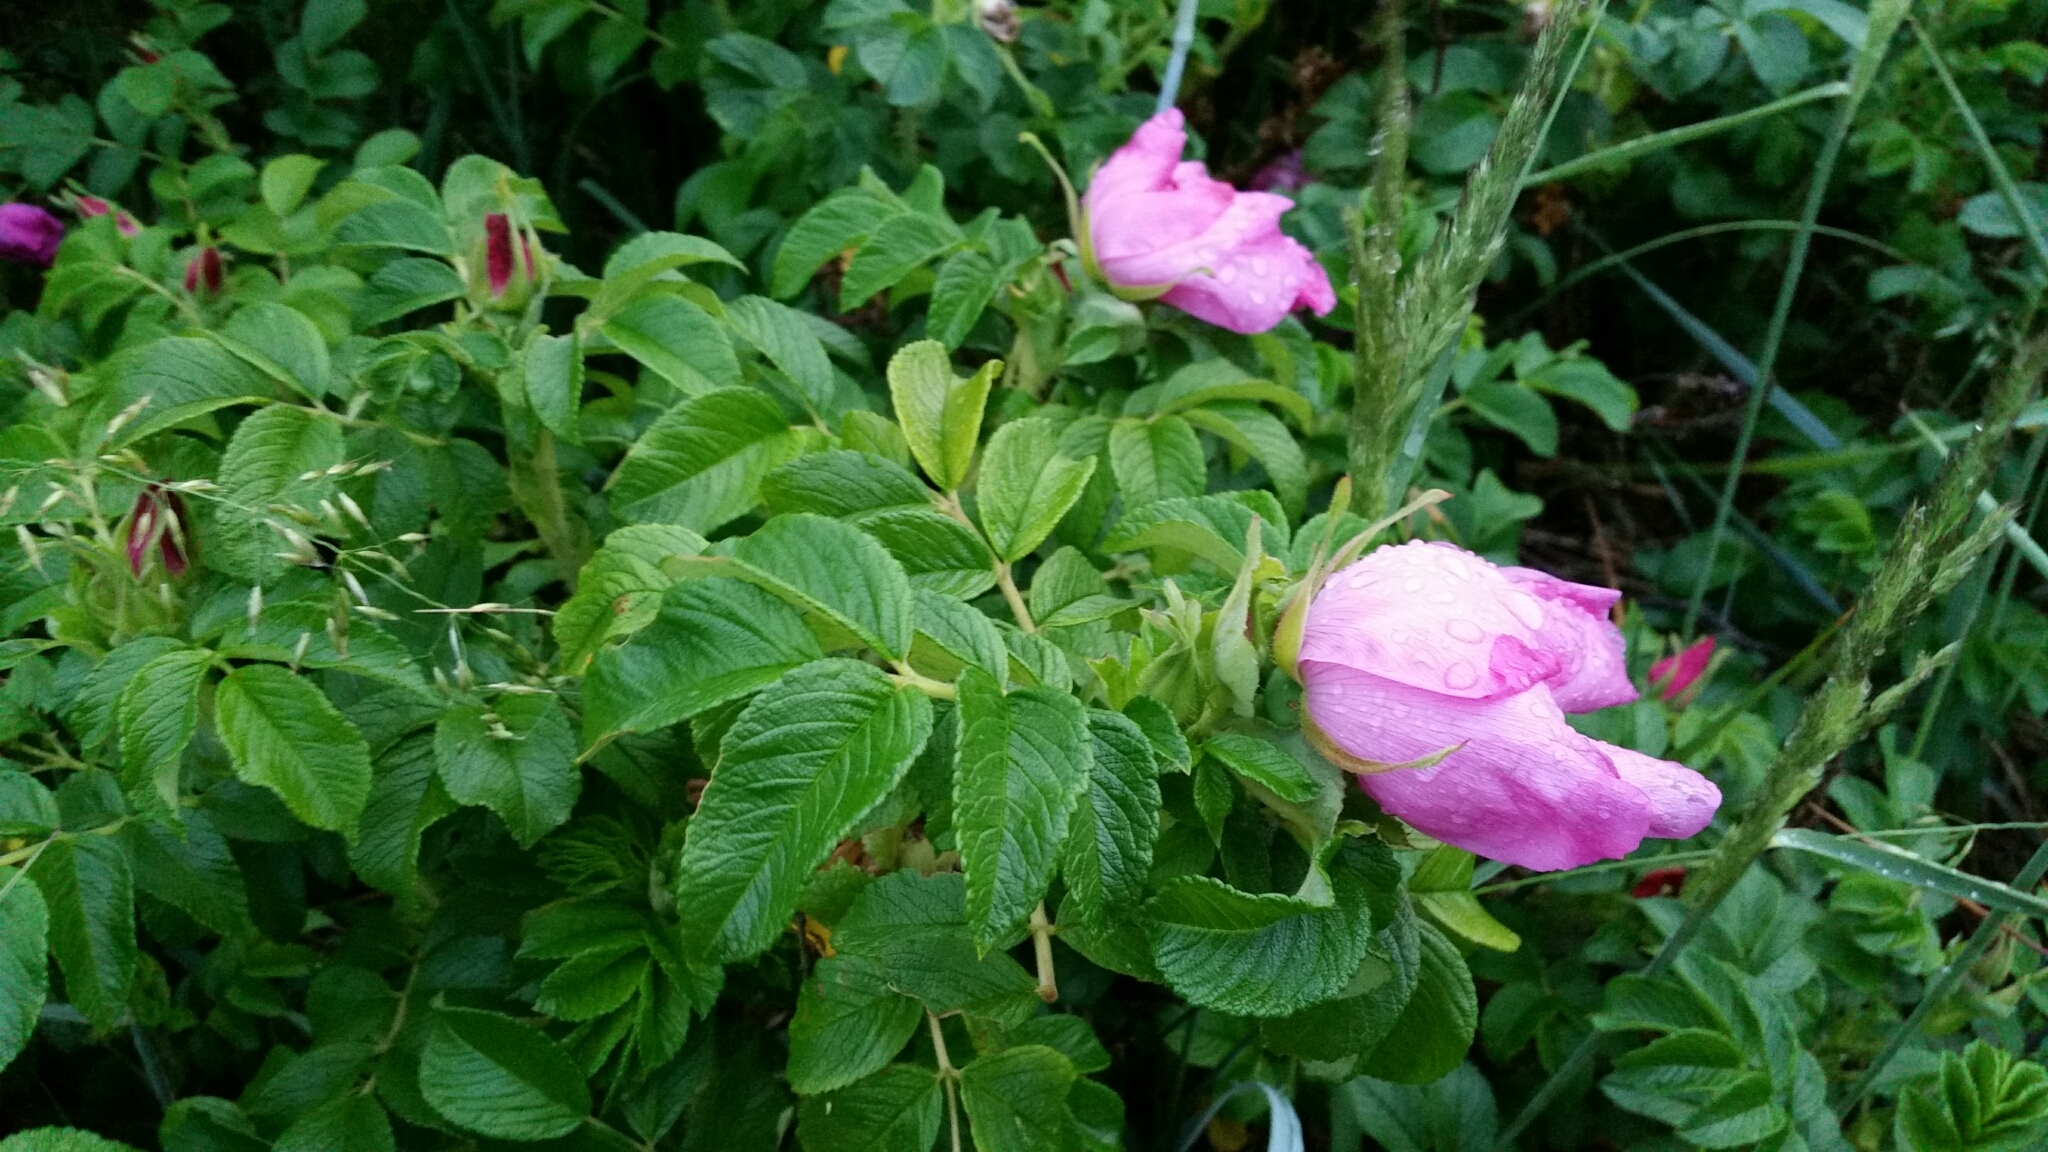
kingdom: Plantae
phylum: Tracheophyta
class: Magnoliopsida
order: Rosales
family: Rosaceae
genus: Rosa
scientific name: Rosa rugosa
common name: Japanese rose
